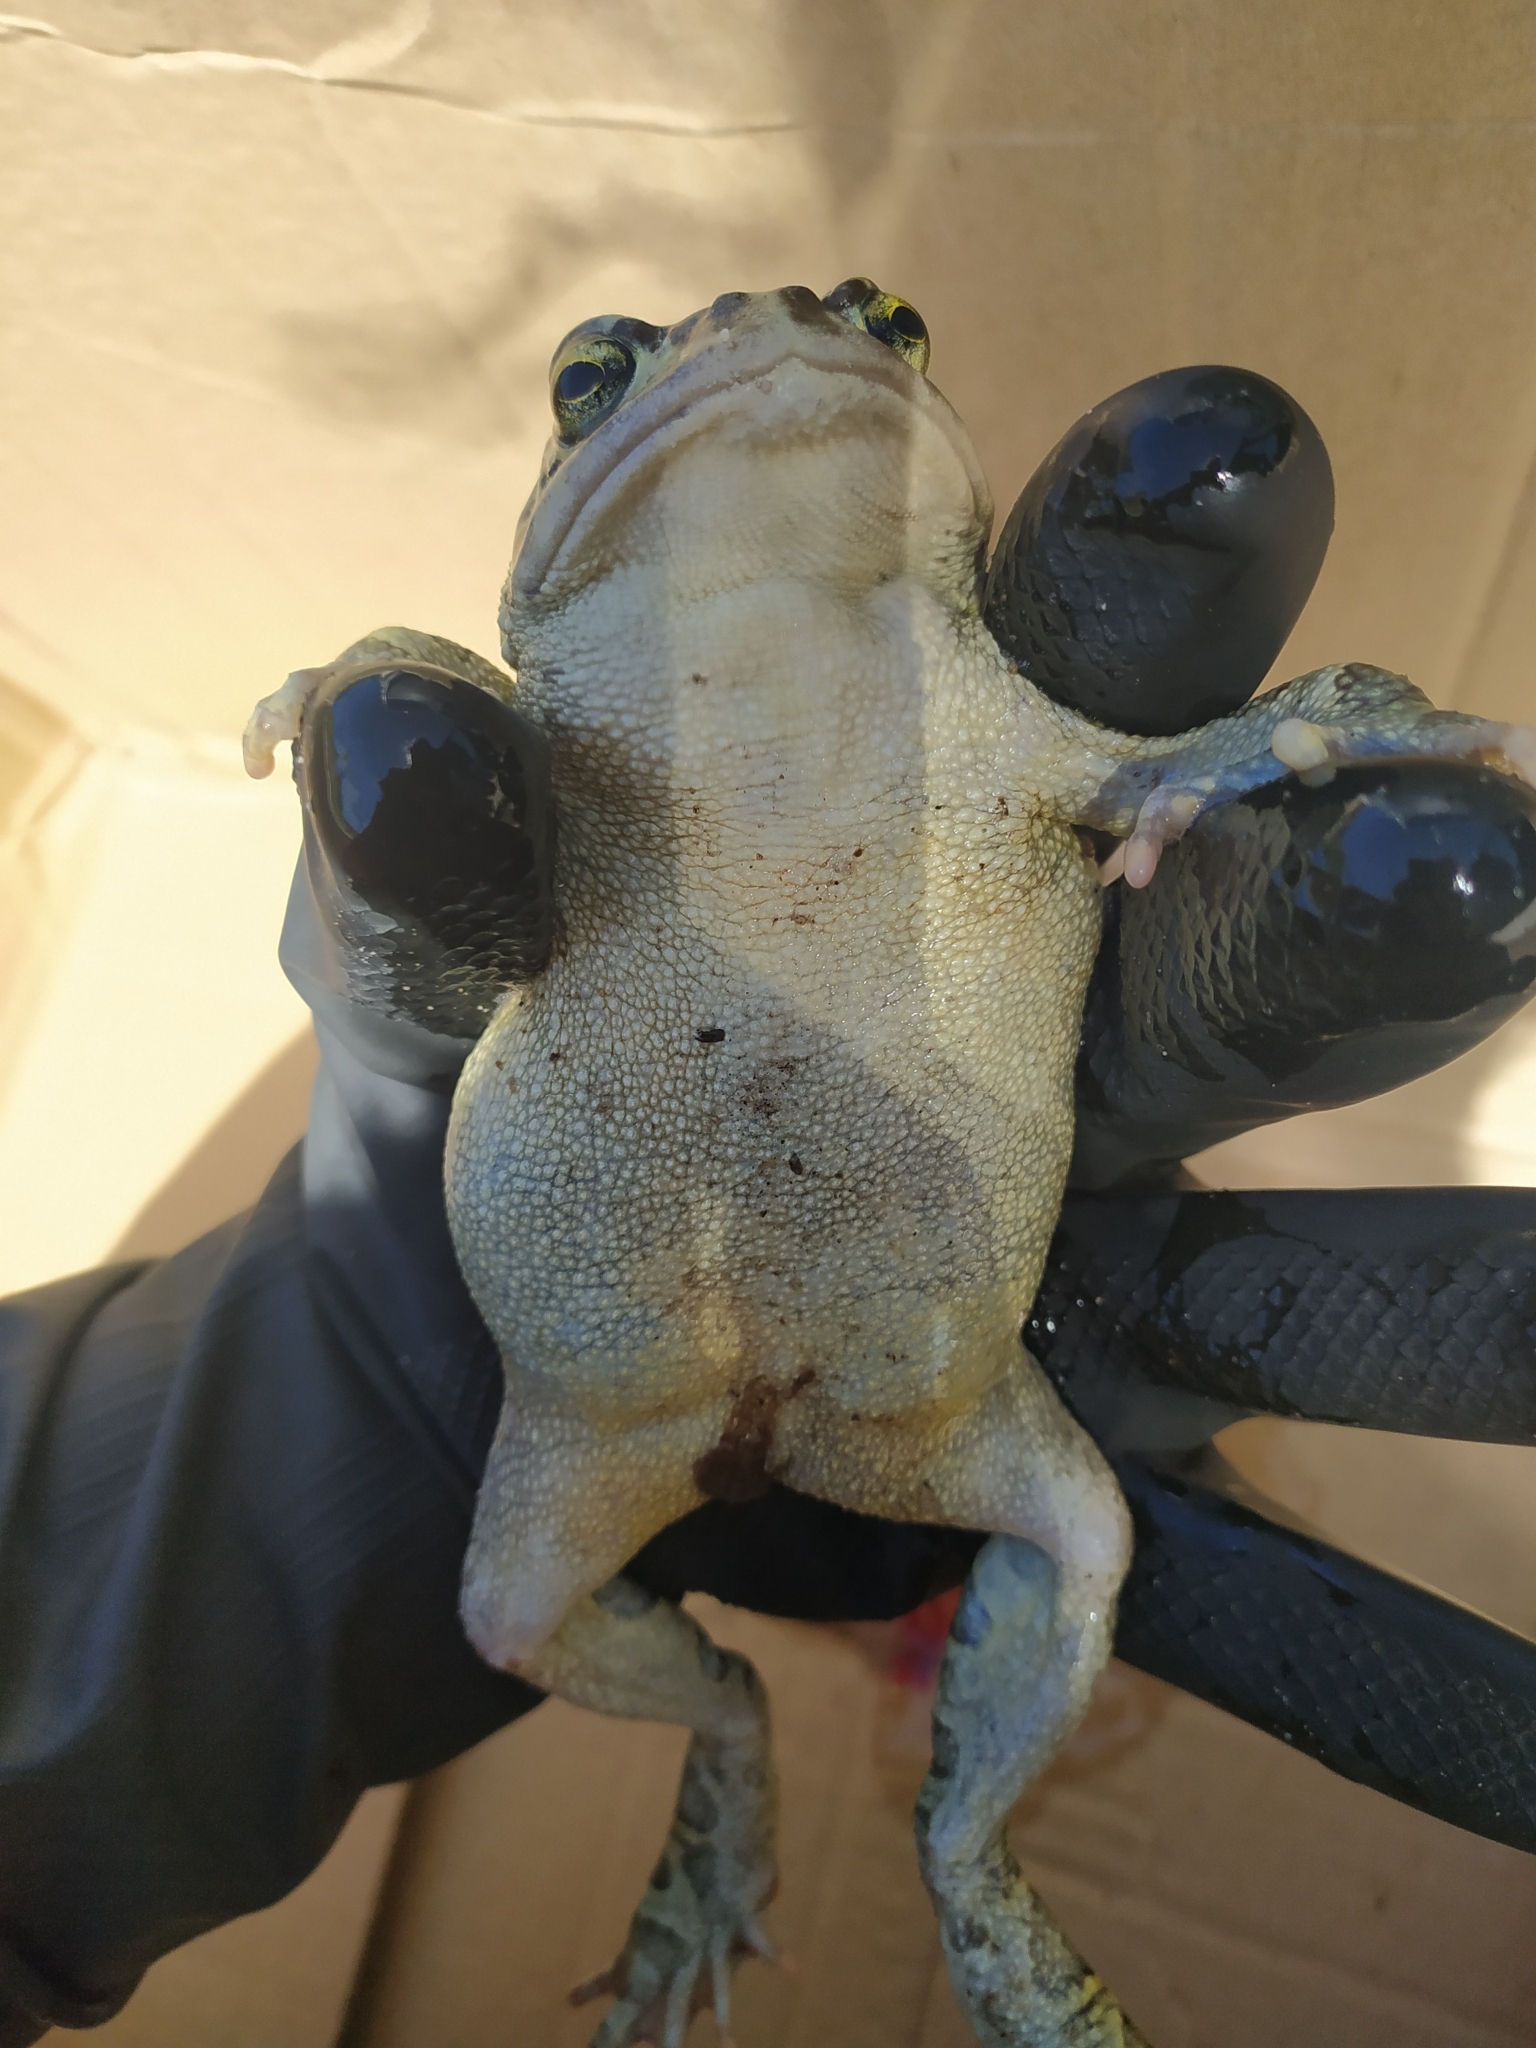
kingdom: Animalia
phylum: Chordata
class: Amphibia
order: Anura
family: Bufonidae
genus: Sclerophrys
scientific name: Sclerophrys pantherina
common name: Panther toad
